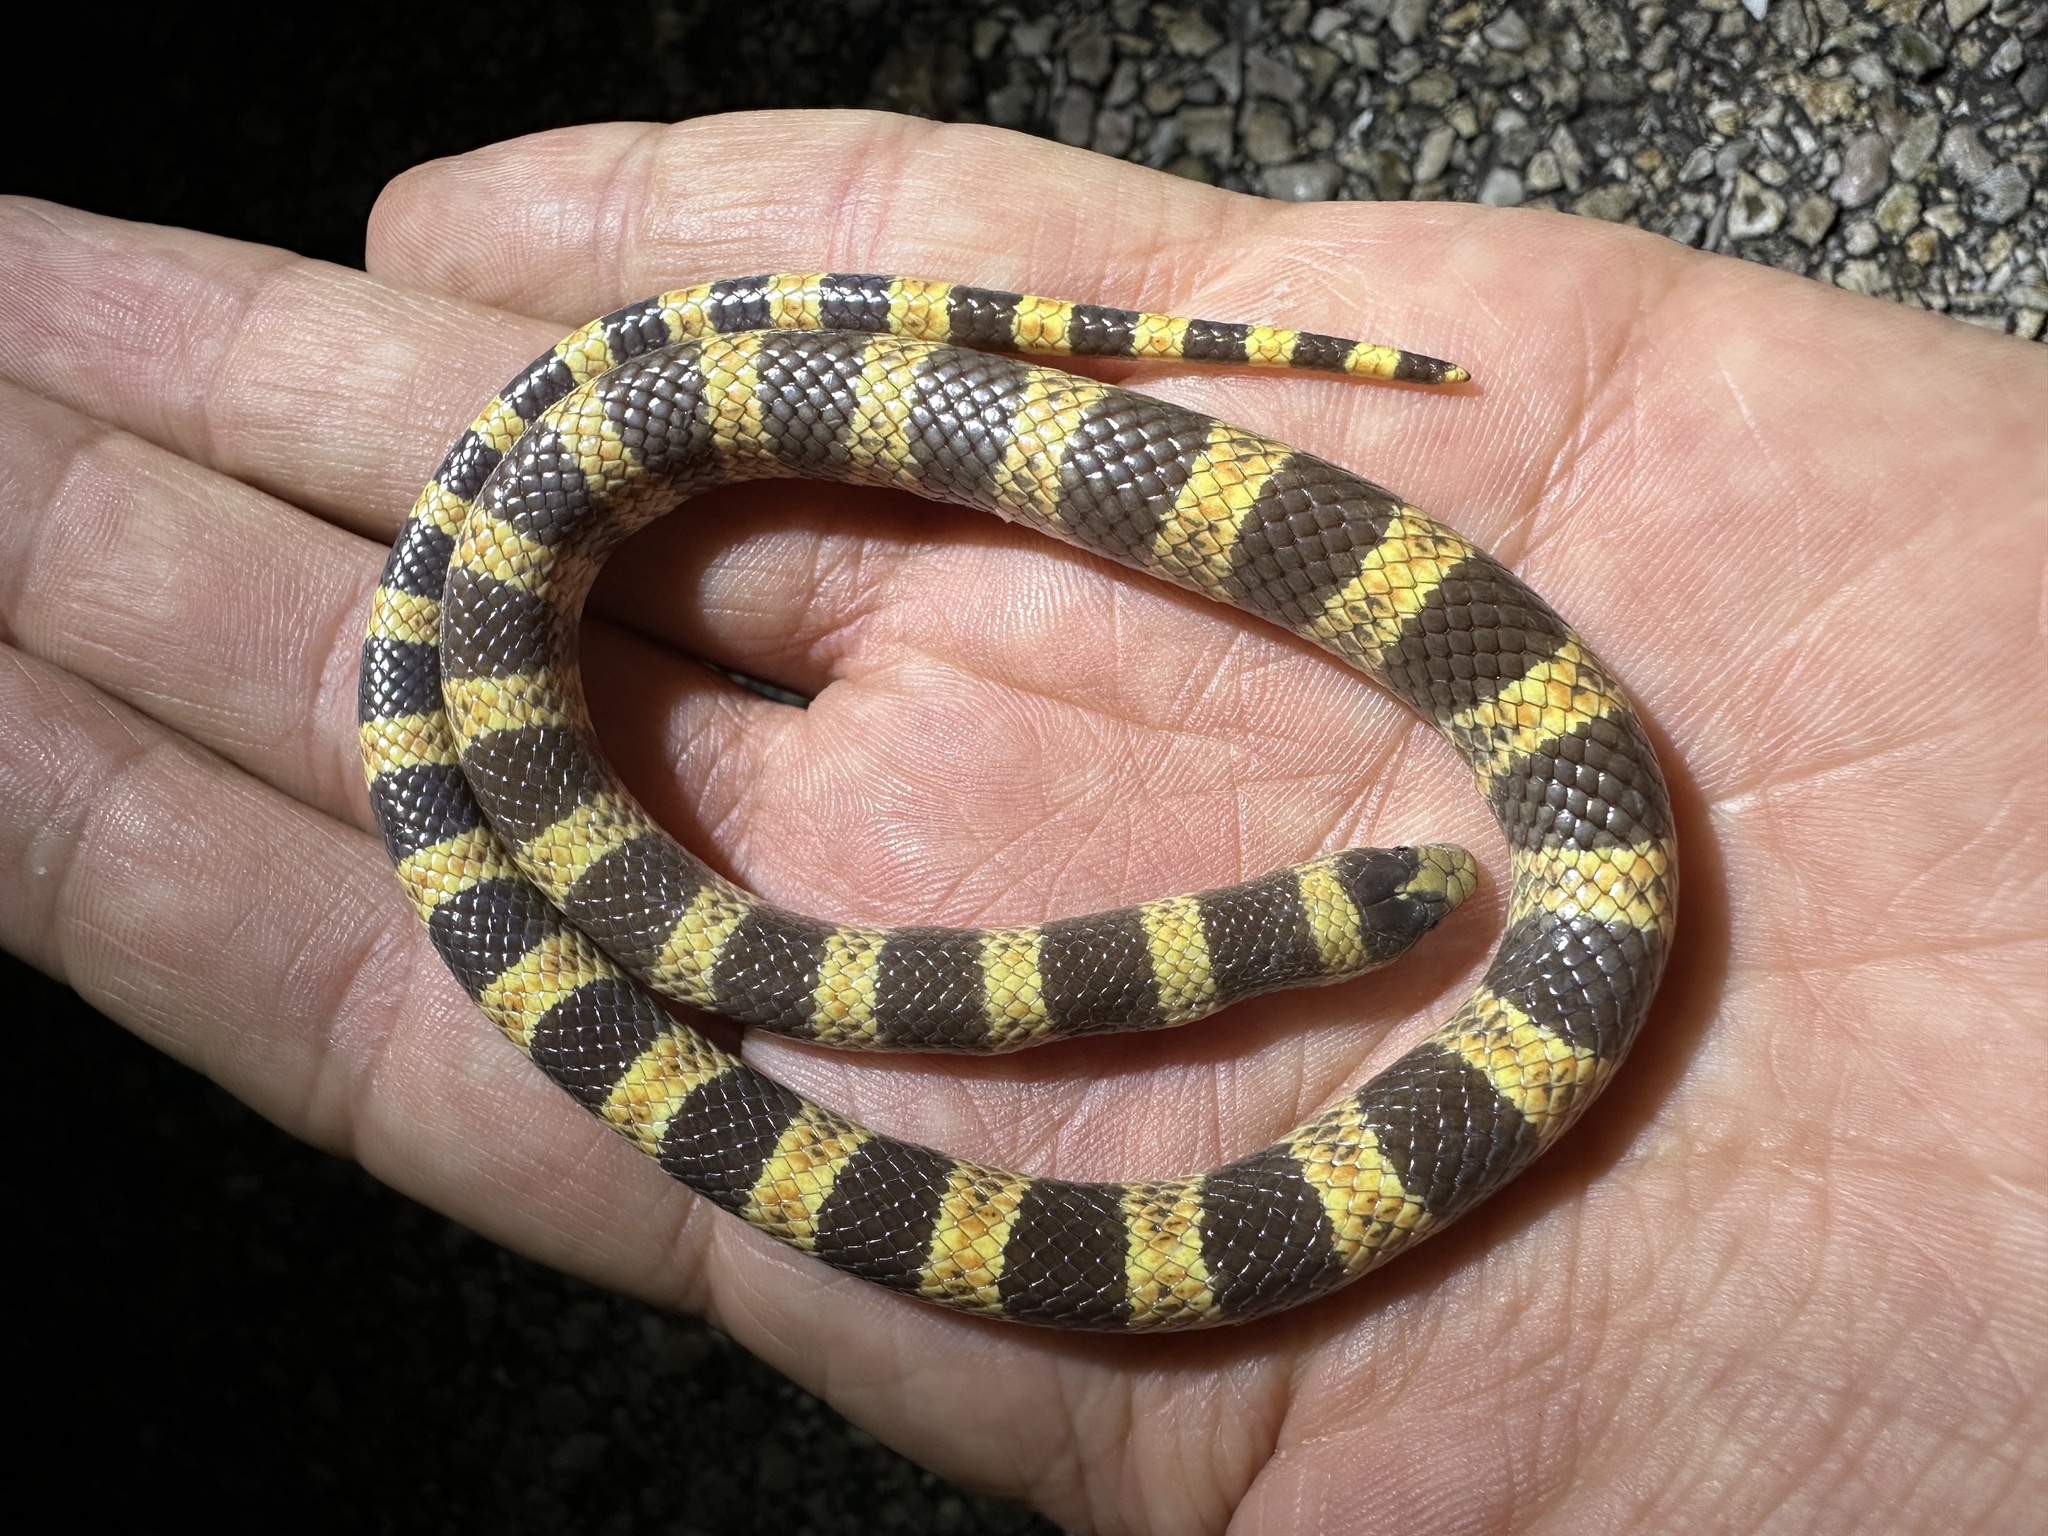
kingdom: Animalia
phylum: Chordata
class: Squamata
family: Colubridae
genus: Sonora
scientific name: Sonora occipitalis
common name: Western shovelnose snake
